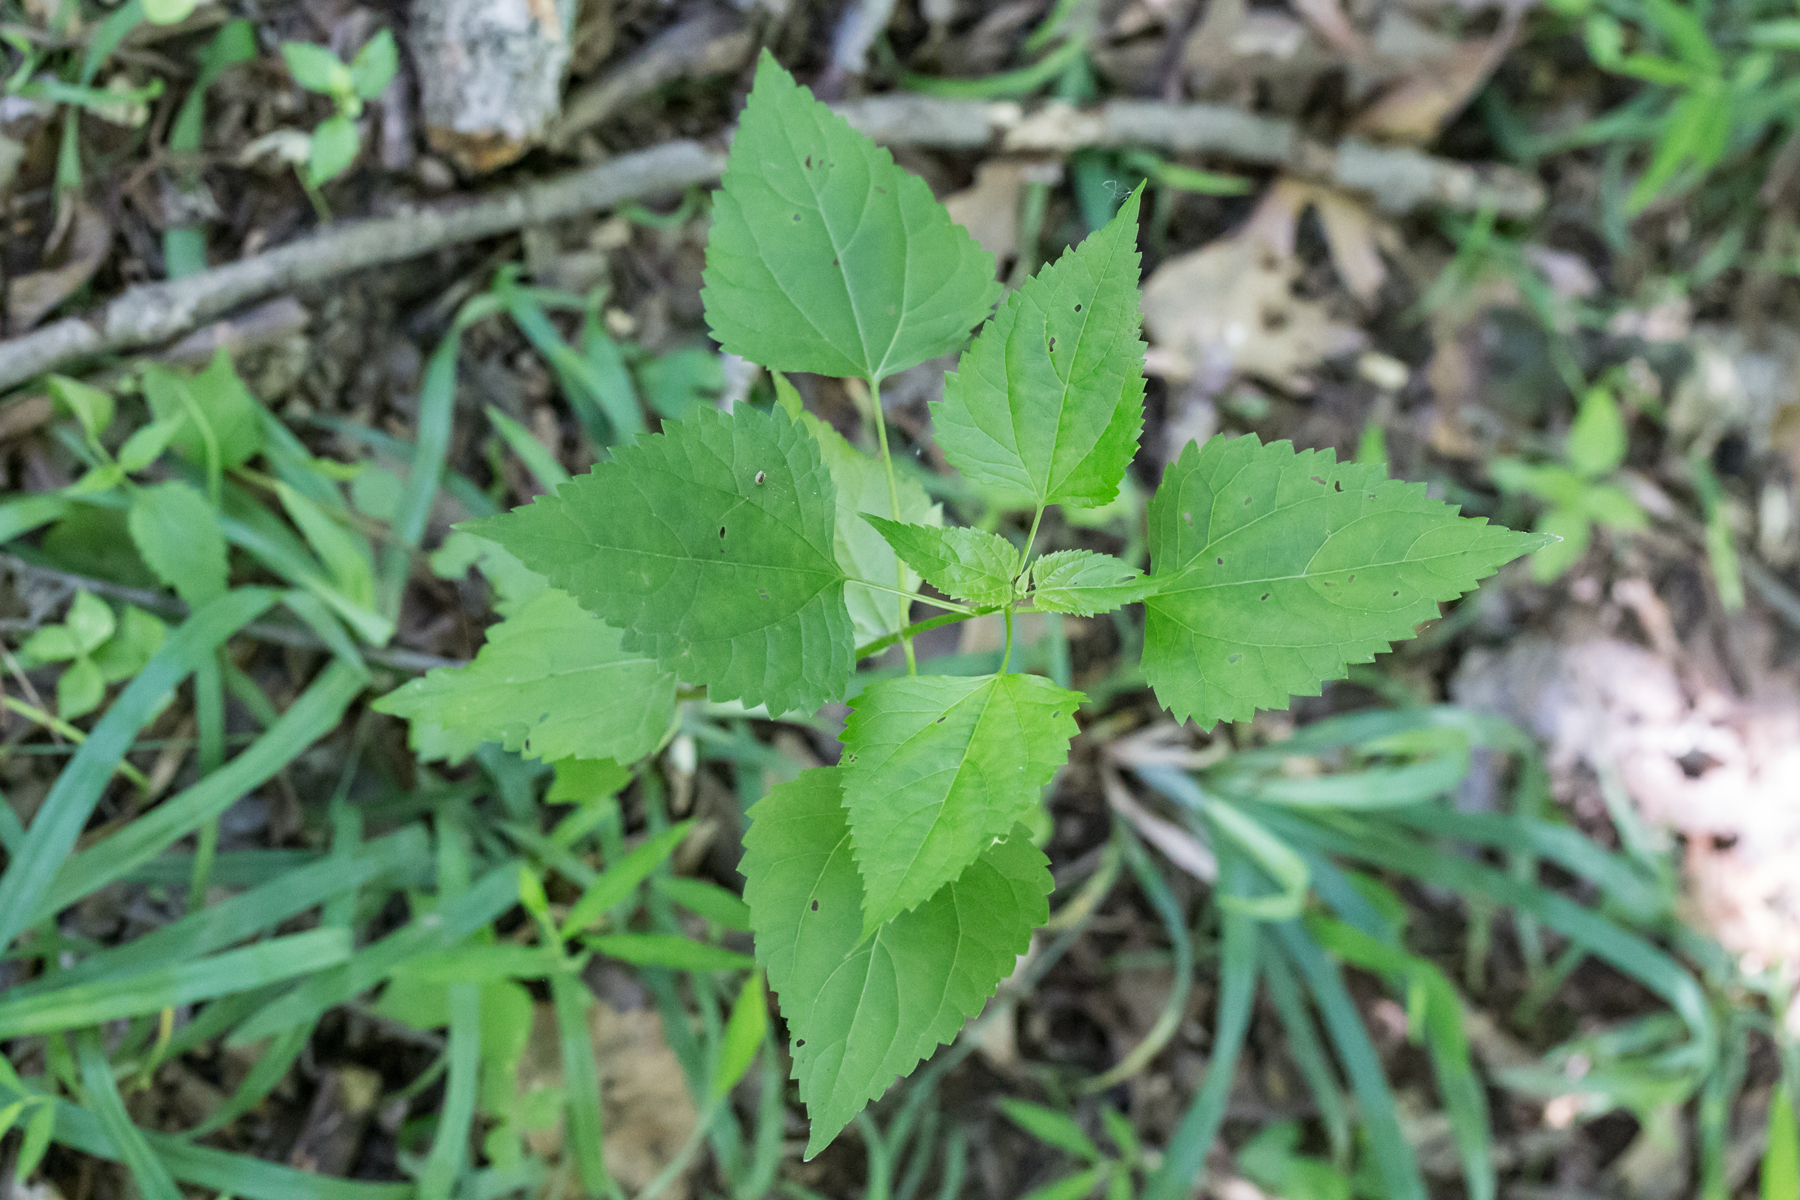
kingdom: Plantae
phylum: Tracheophyta
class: Magnoliopsida
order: Asterales
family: Asteraceae
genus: Ageratina
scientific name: Ageratina altissima
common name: White snakeroot
